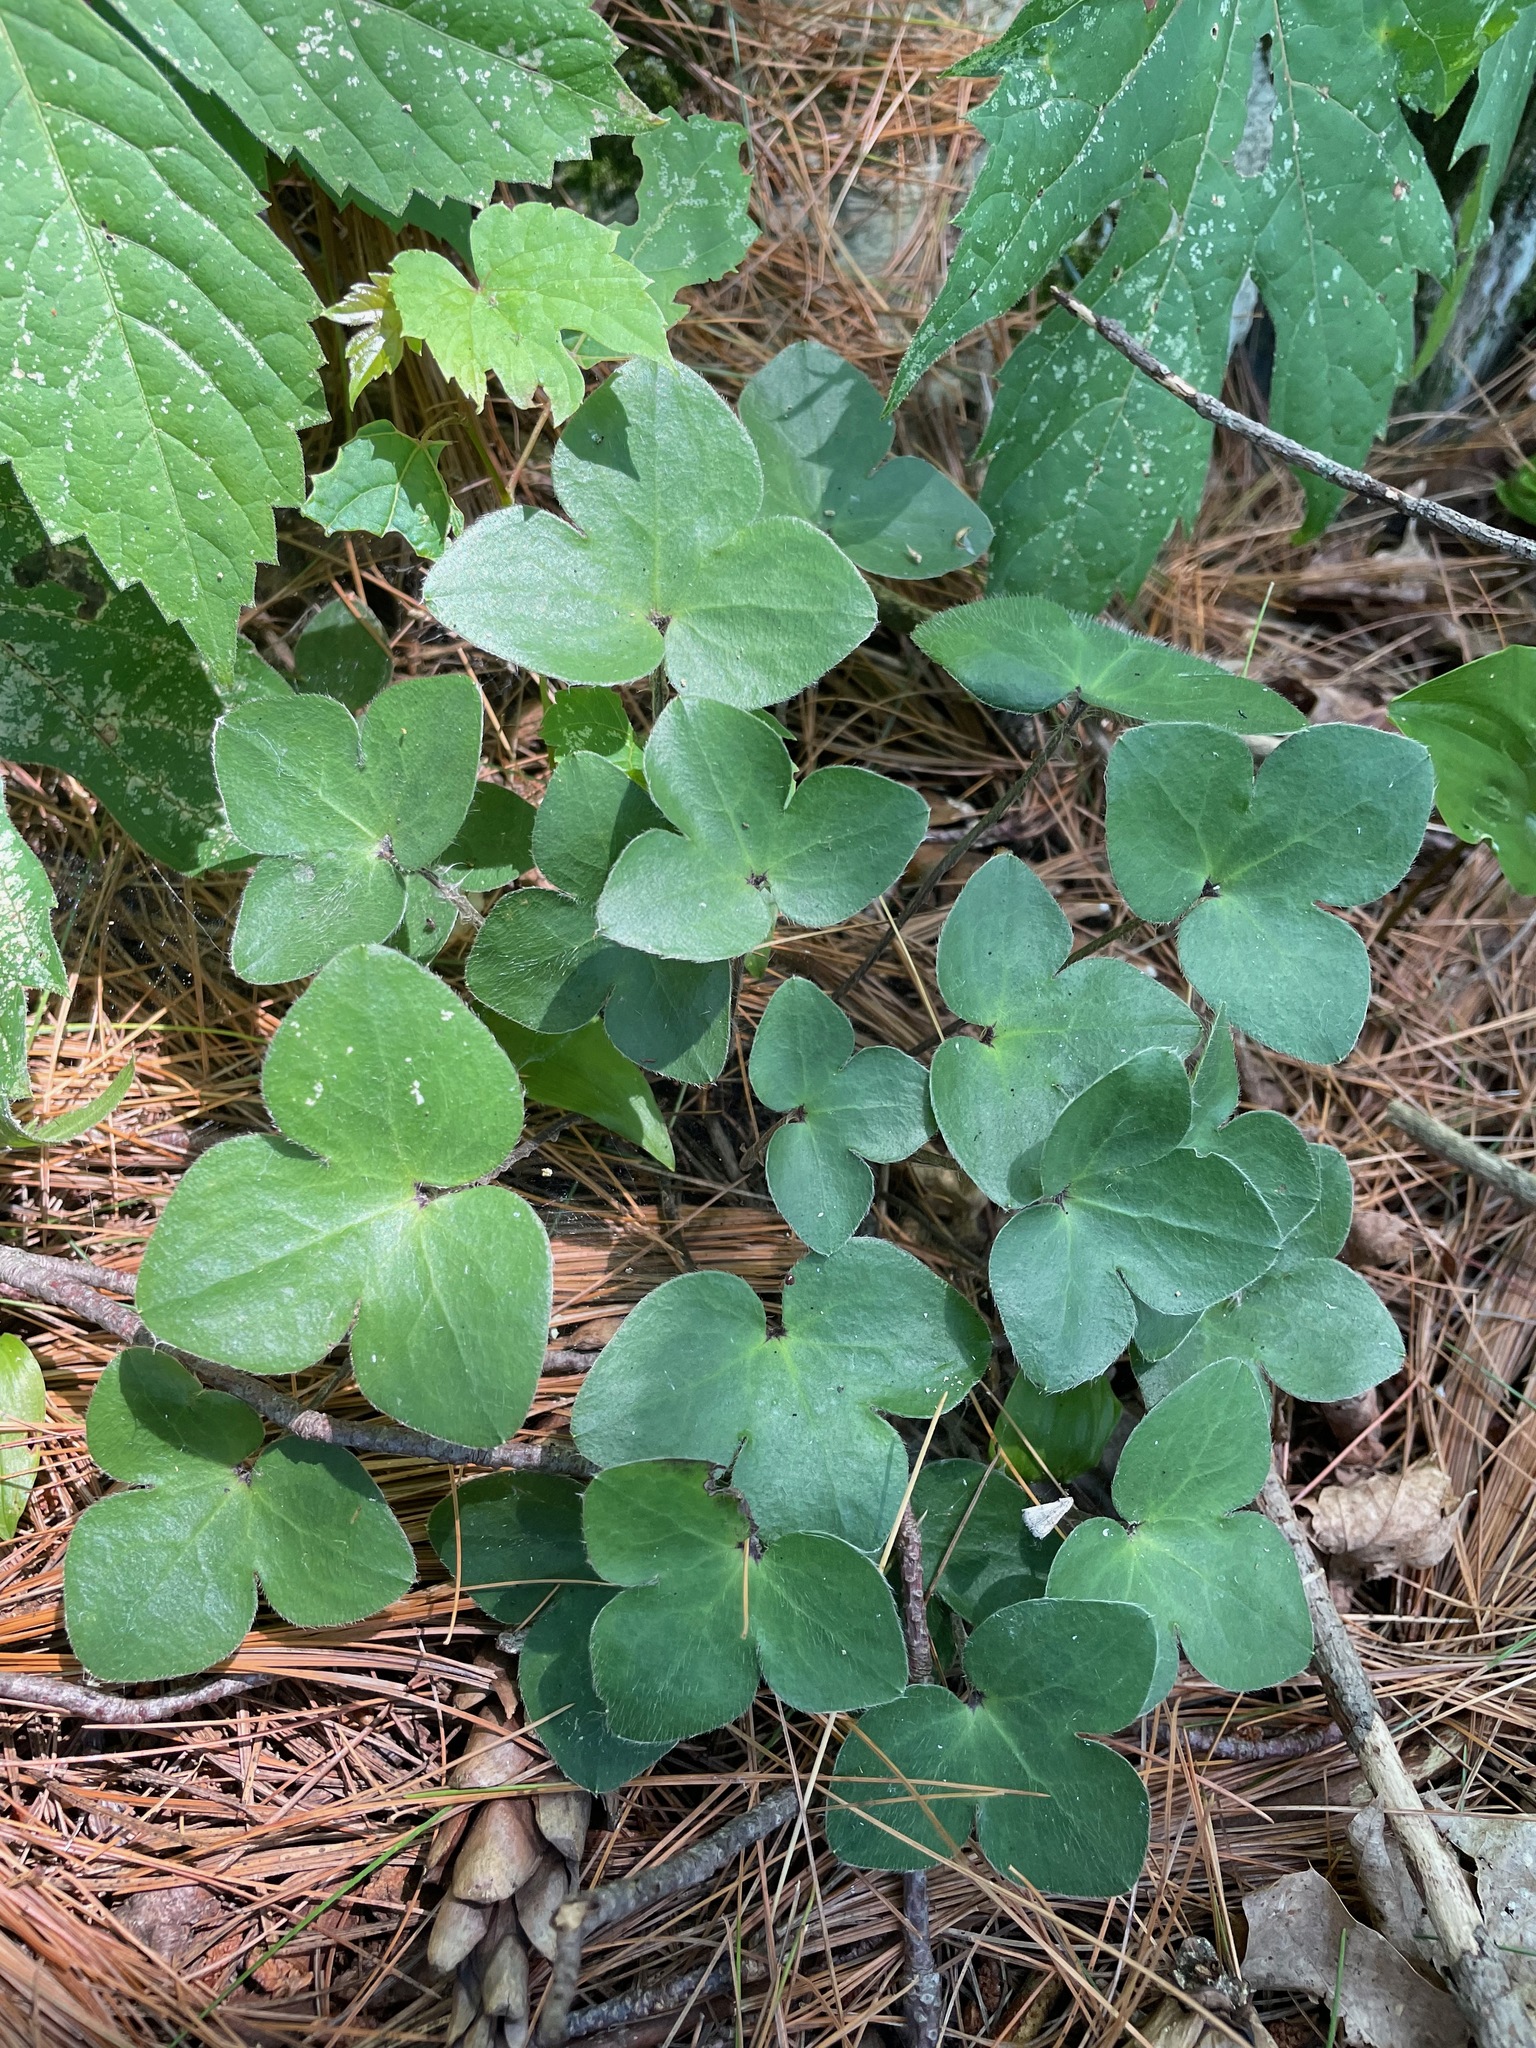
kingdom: Plantae
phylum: Tracheophyta
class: Magnoliopsida
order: Ranunculales
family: Ranunculaceae
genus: Hepatica
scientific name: Hepatica americana
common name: American hepatica
